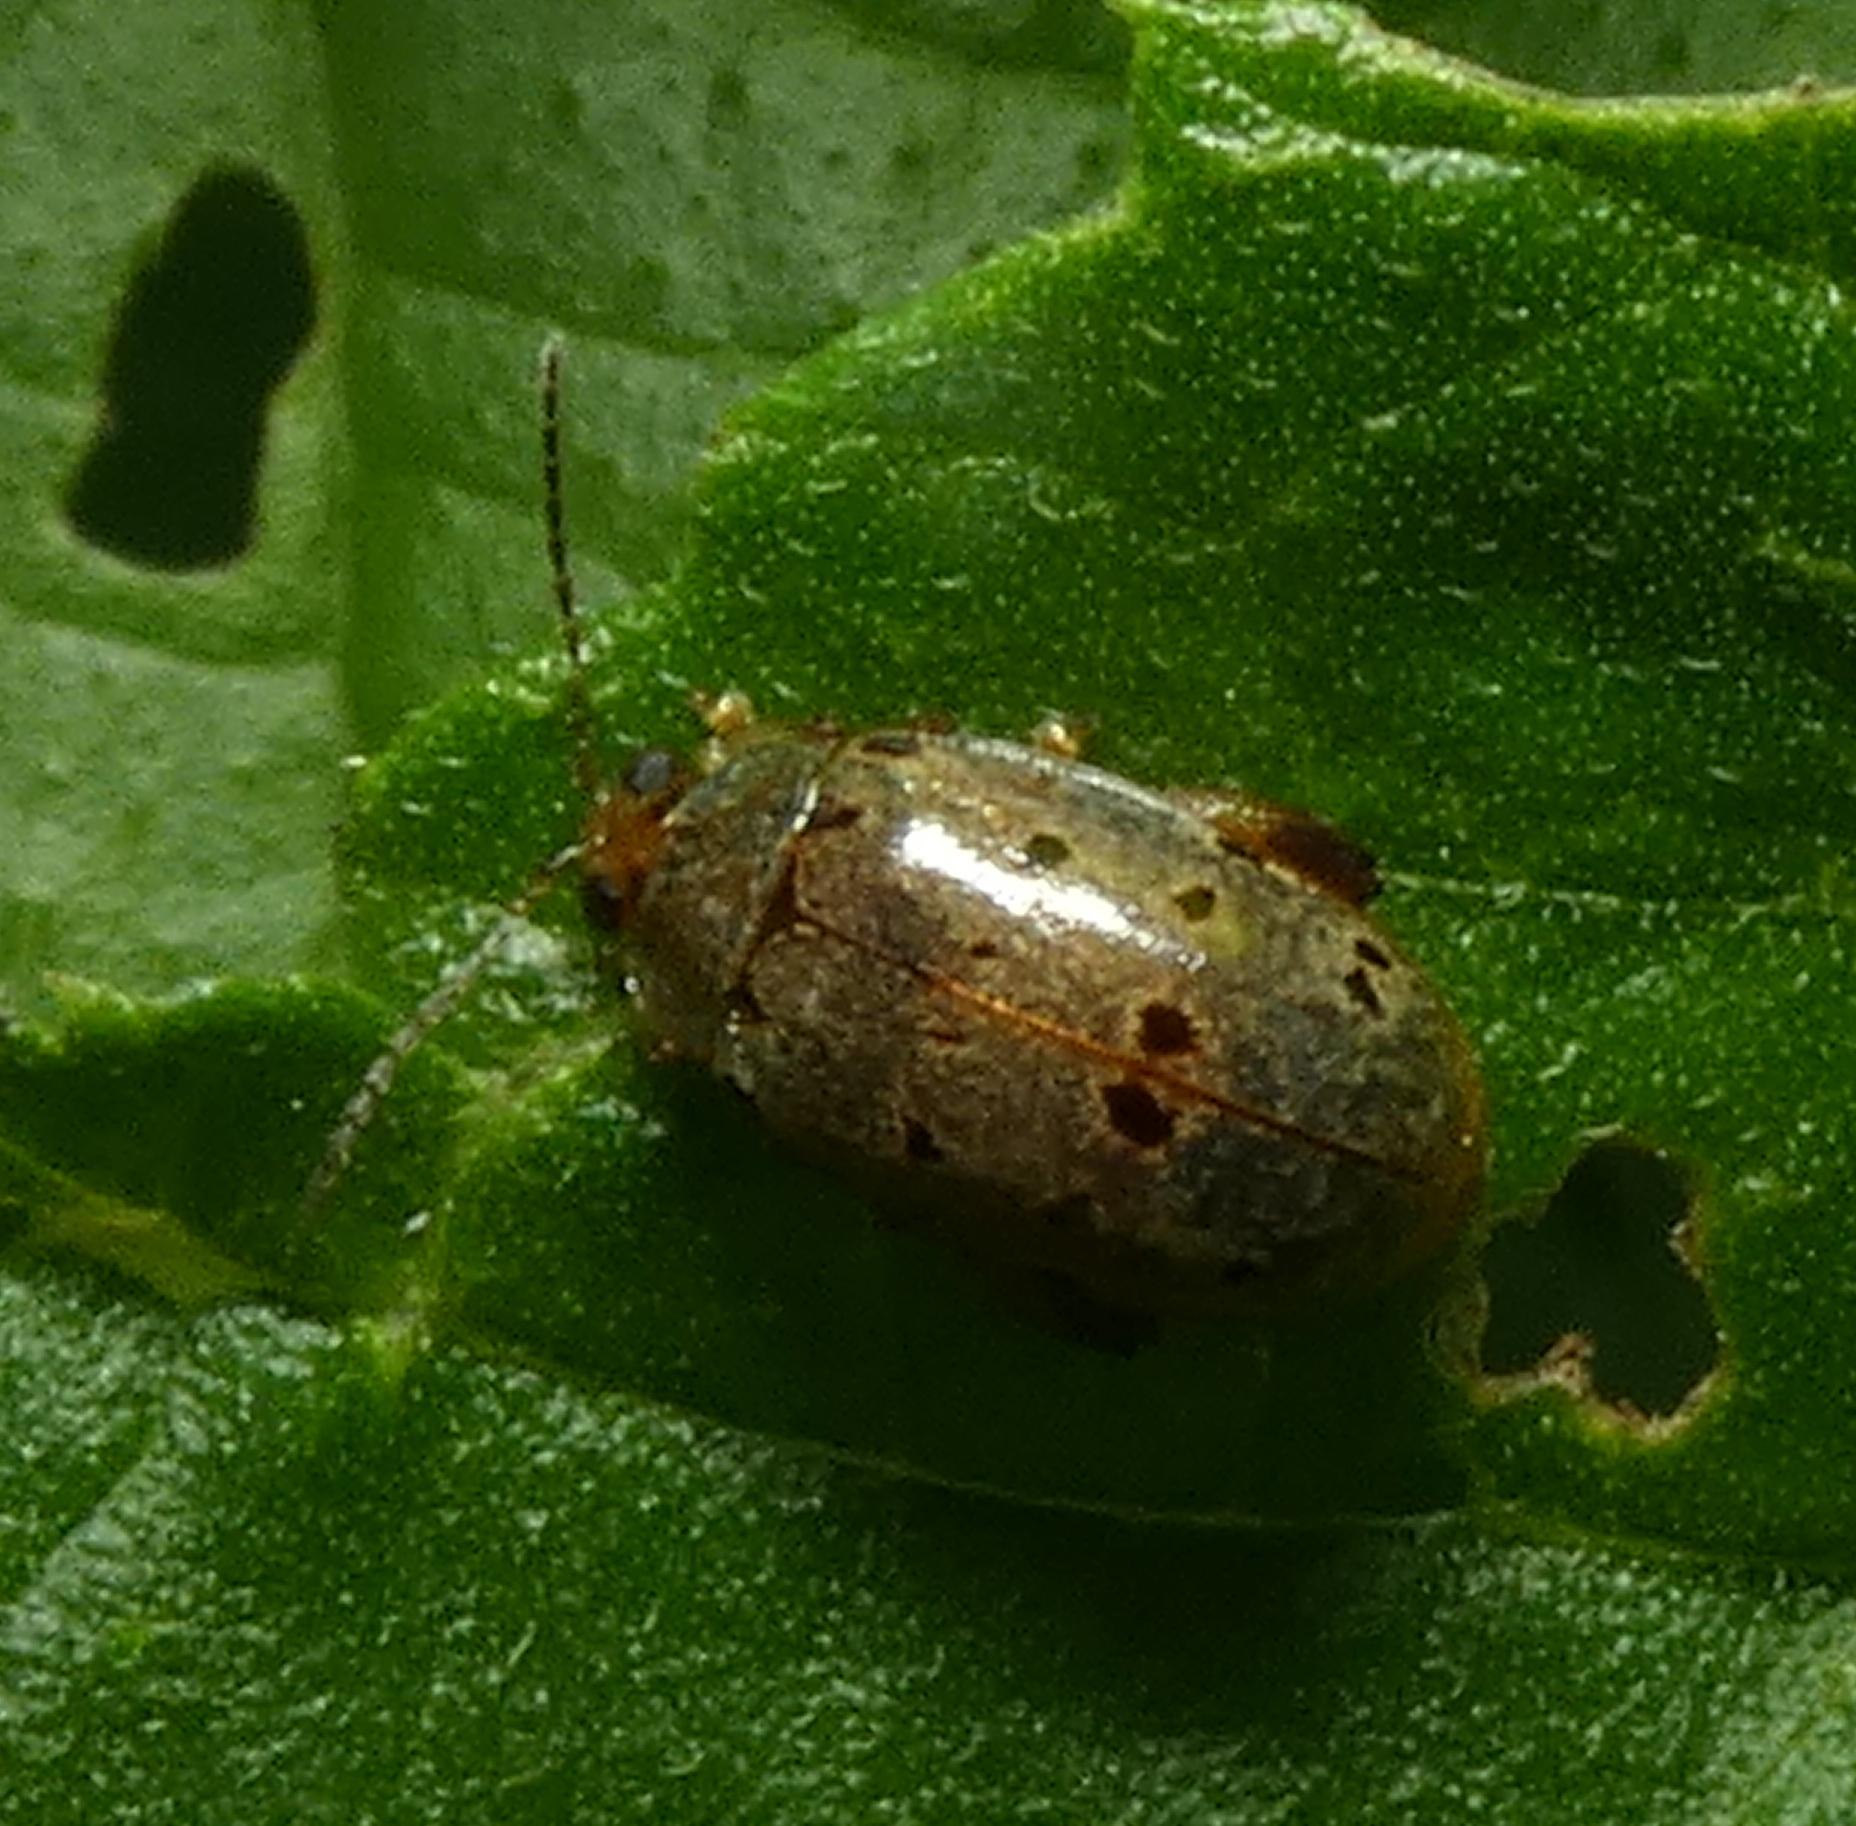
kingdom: Animalia
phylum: Arthropoda
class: Insecta
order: Coleoptera
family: Chrysomelidae
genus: Alagoasa
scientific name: Alagoasa
